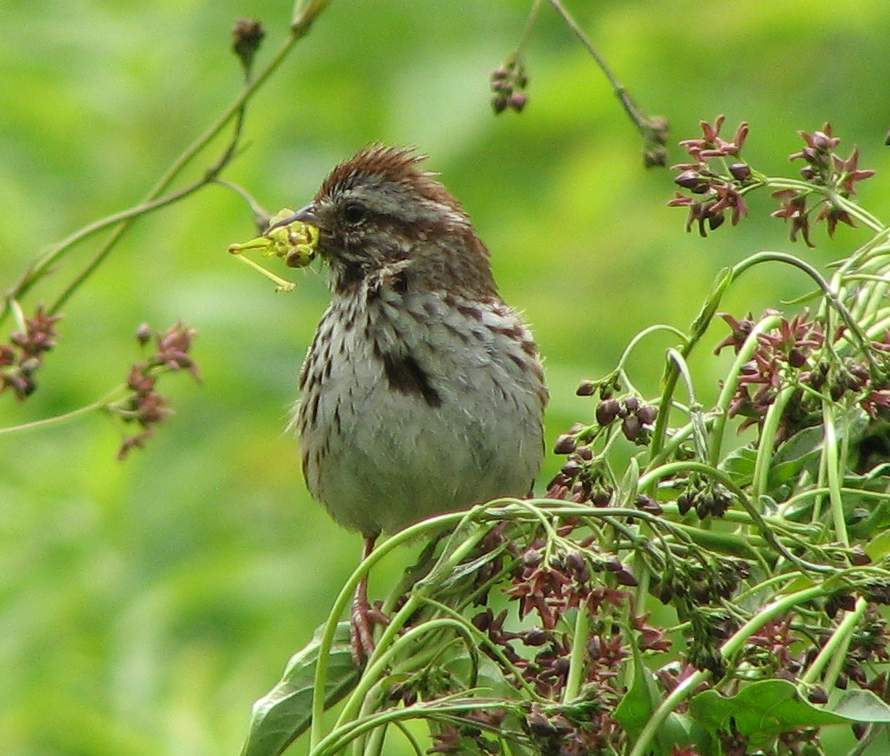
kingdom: Animalia
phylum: Chordata
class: Aves
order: Passeriformes
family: Passerellidae
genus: Melospiza
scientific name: Melospiza melodia
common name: Song sparrow
